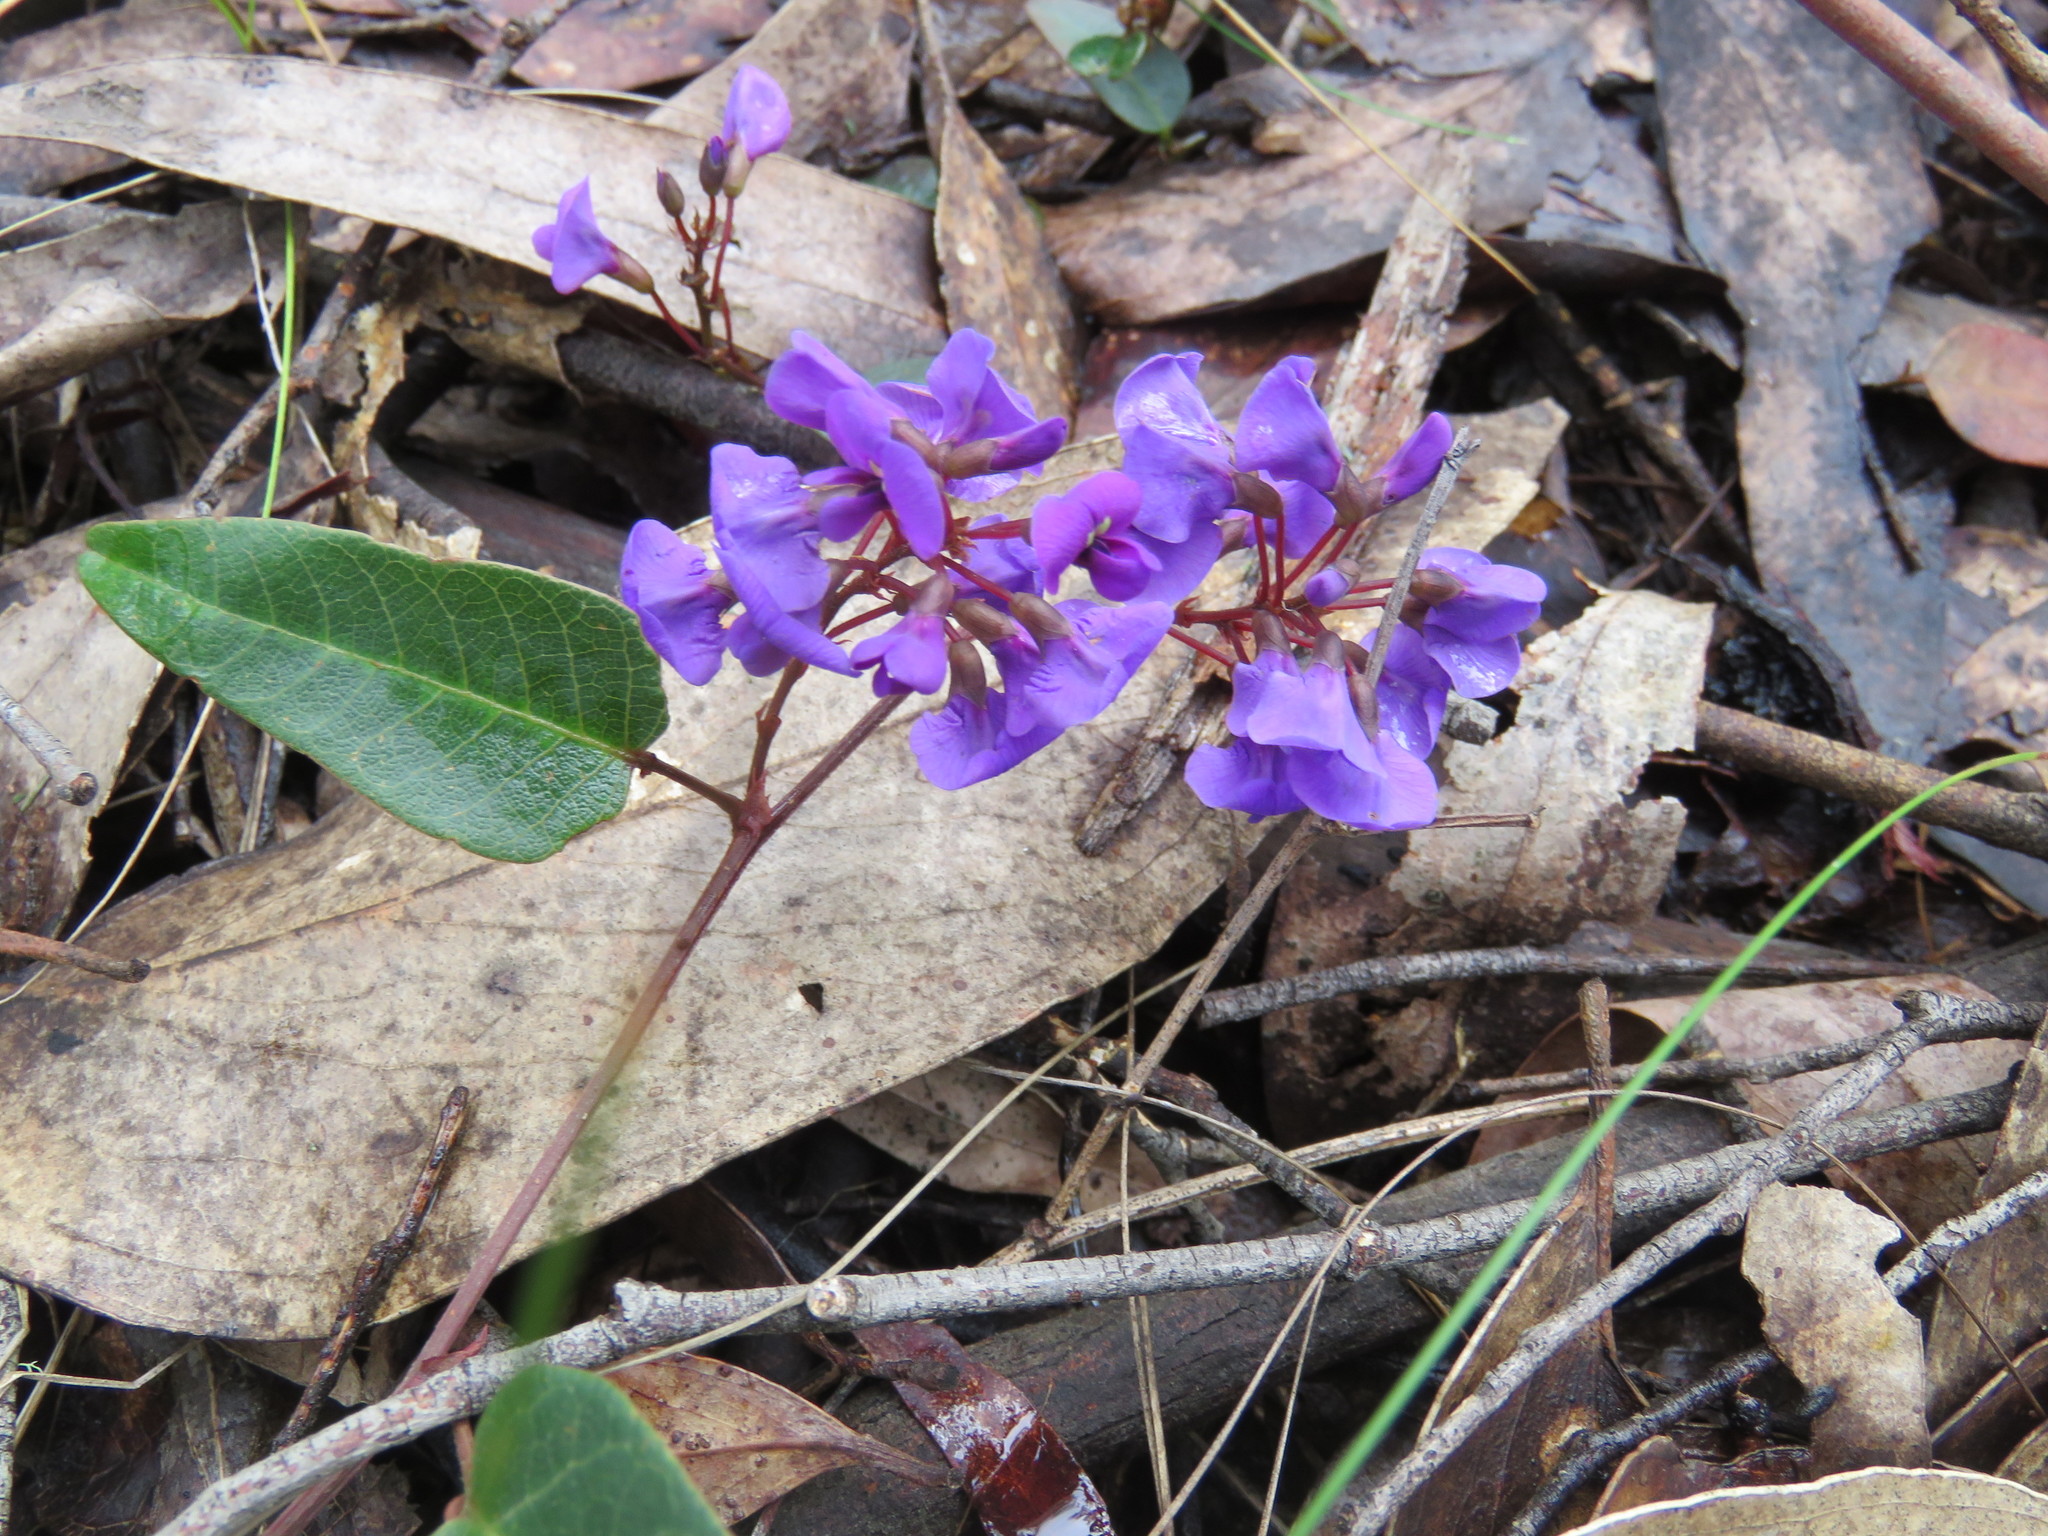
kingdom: Plantae
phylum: Tracheophyta
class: Magnoliopsida
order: Fabales
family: Fabaceae
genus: Hardenbergia
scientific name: Hardenbergia violacea
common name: Coral-pea
